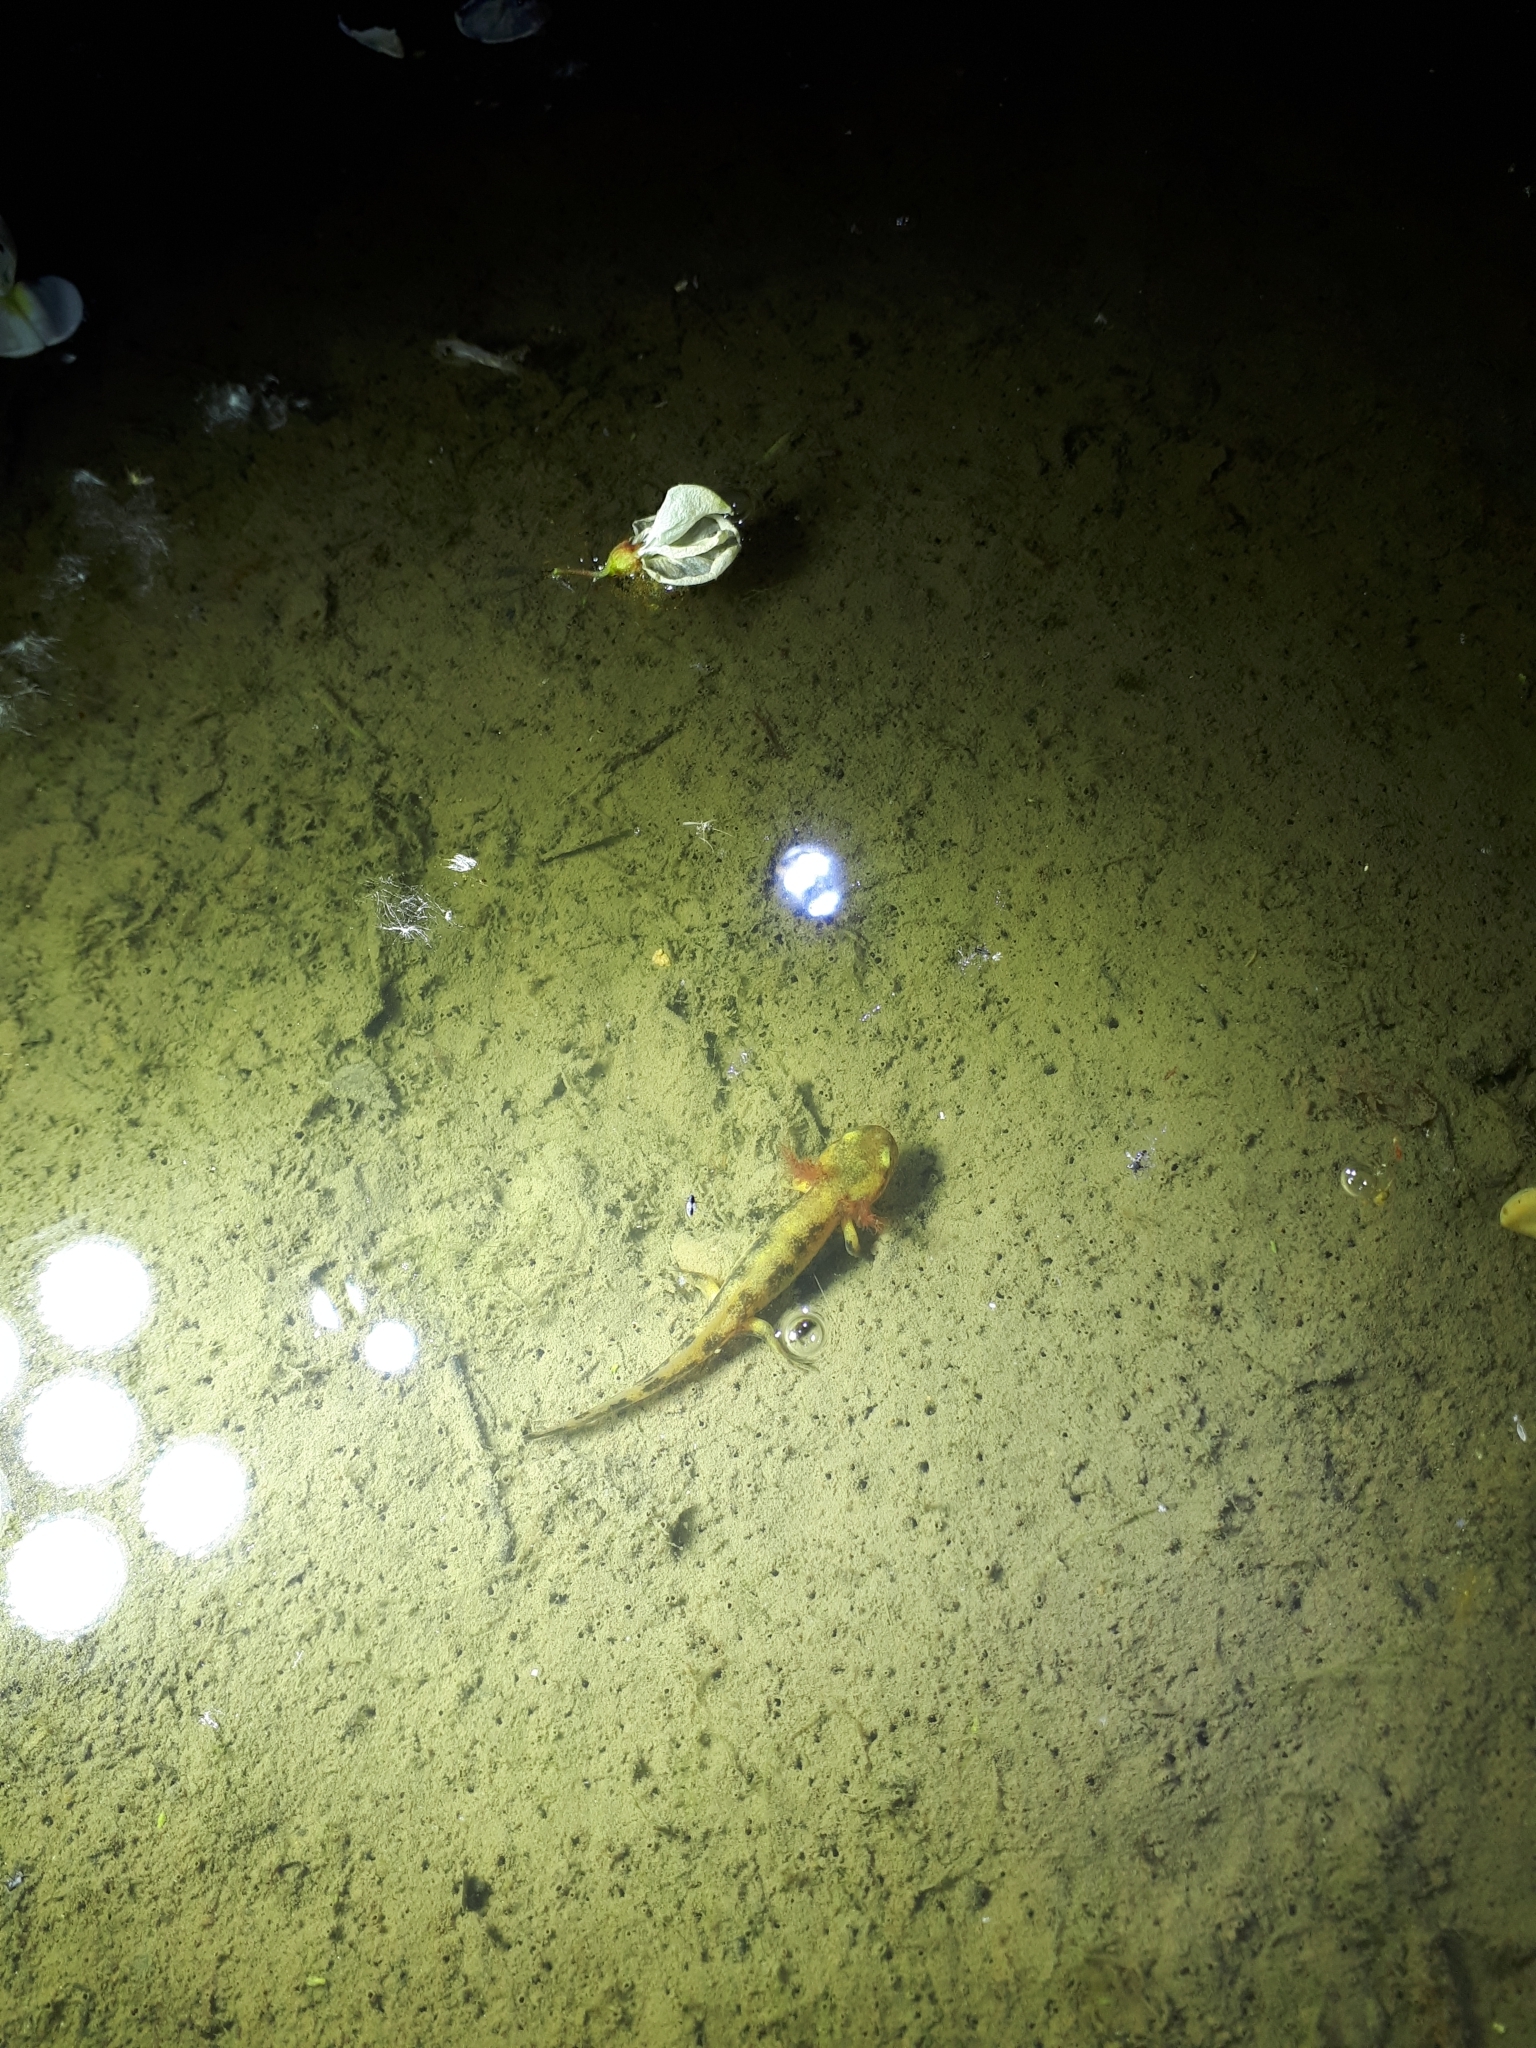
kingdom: Animalia
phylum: Chordata
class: Amphibia
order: Caudata
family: Salamandridae
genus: Salamandra
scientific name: Salamandra salamandra
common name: Fire salamander
